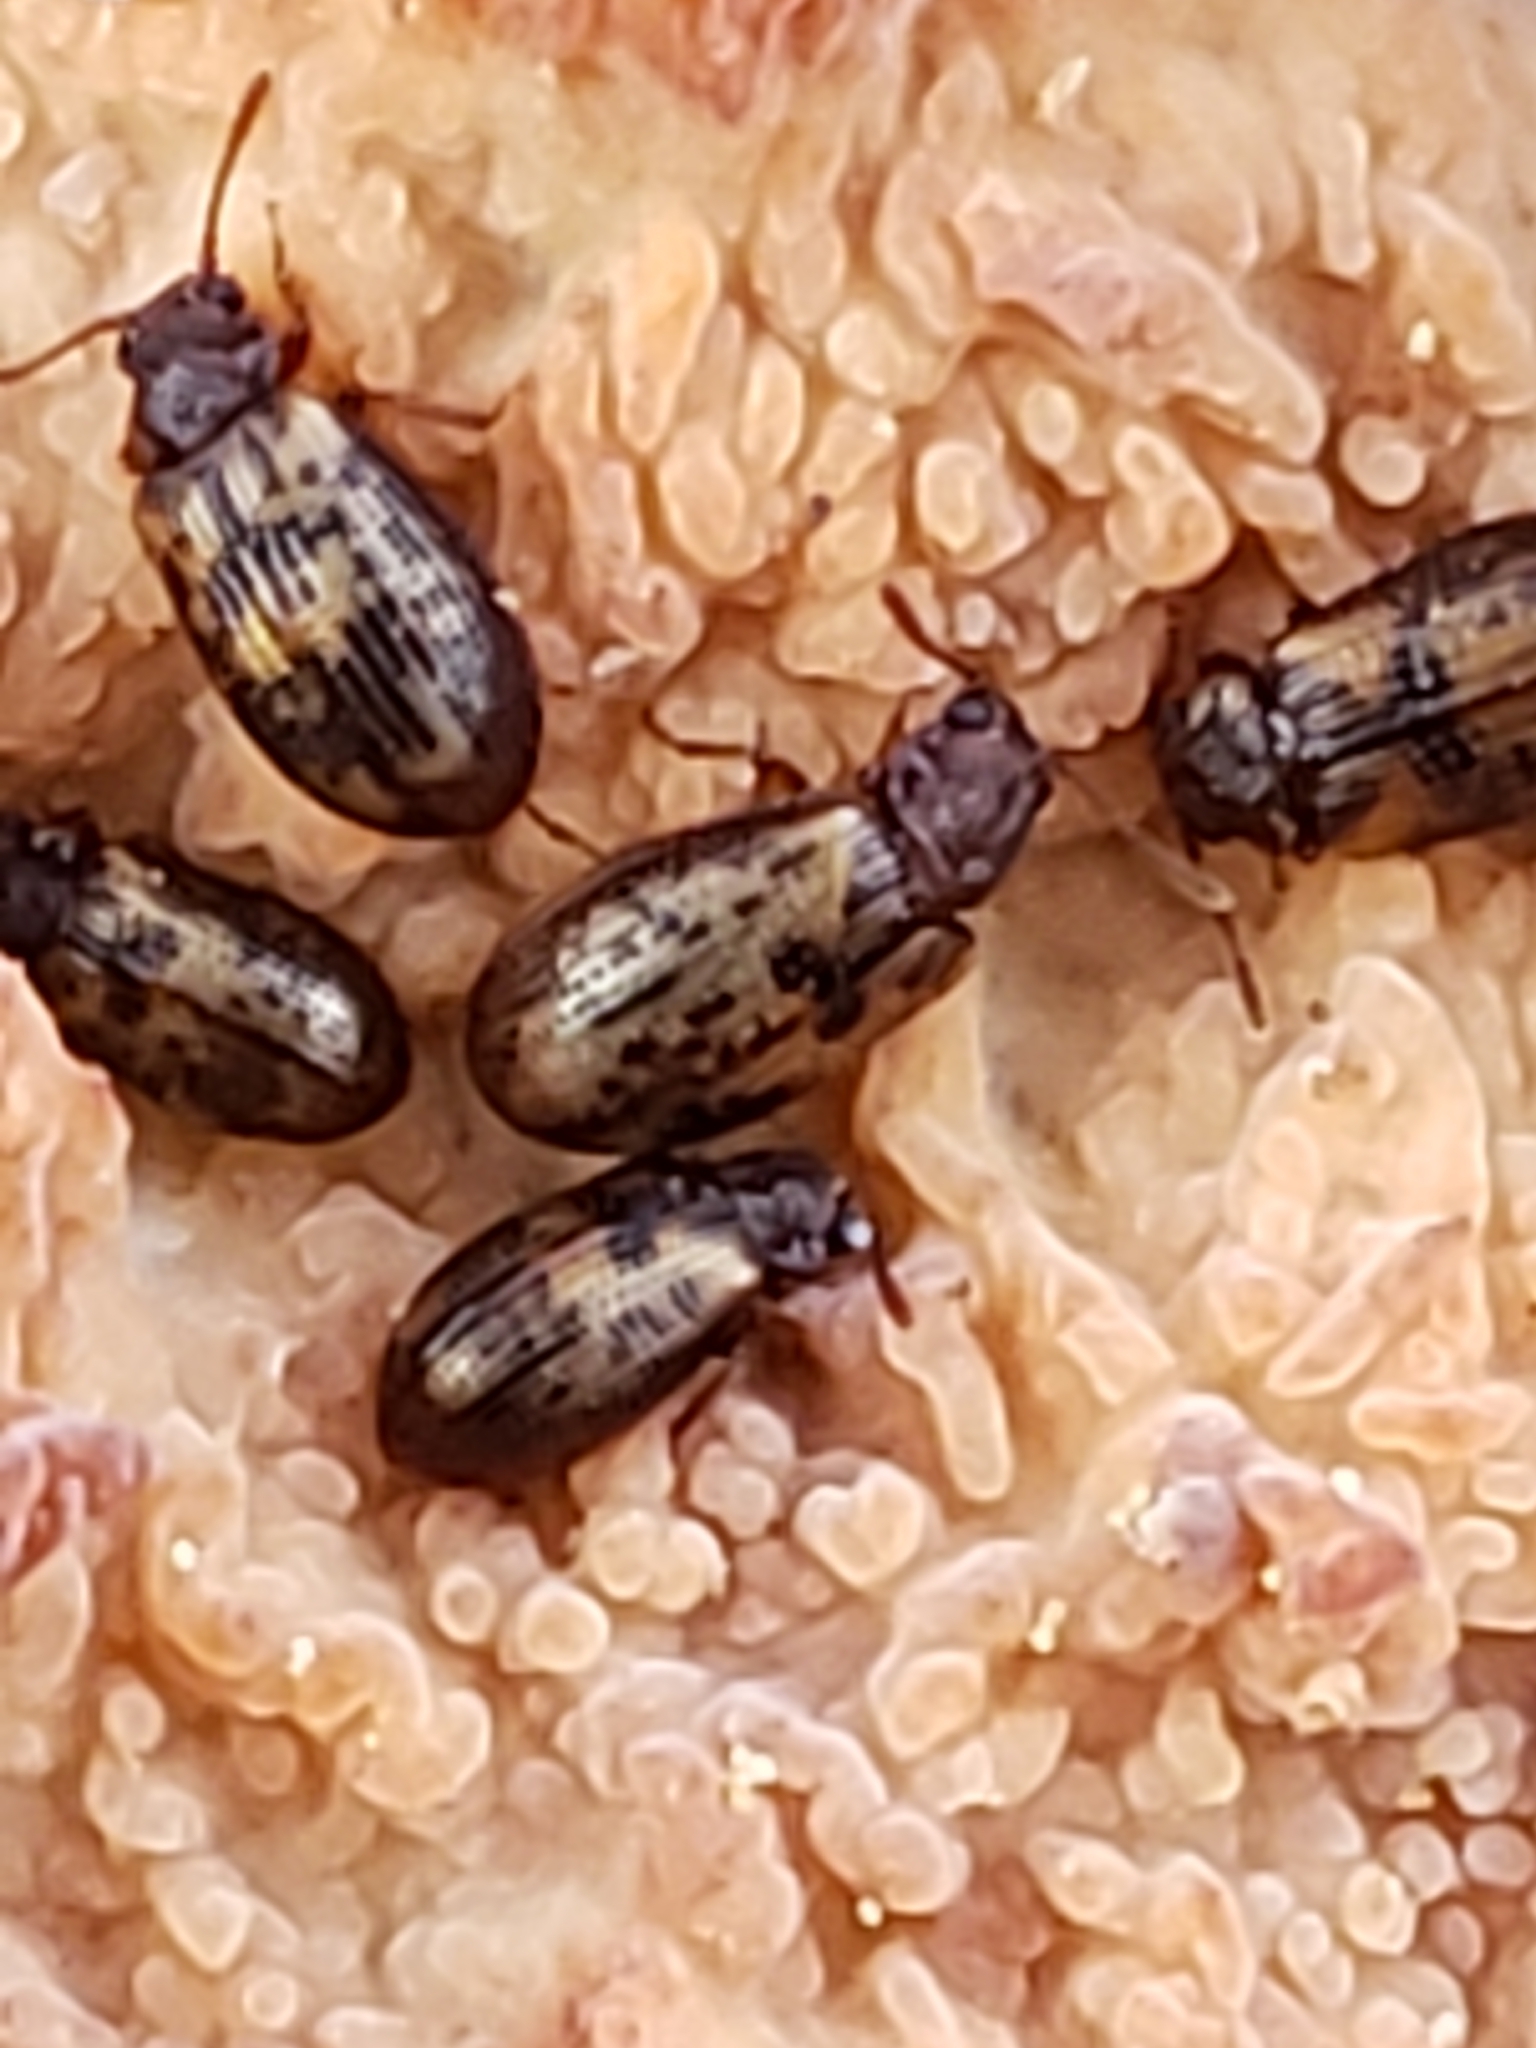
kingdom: Animalia
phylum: Arthropoda
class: Insecta
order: Coleoptera
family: Derodontidae
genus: Derodontus
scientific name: Derodontus esotericus
